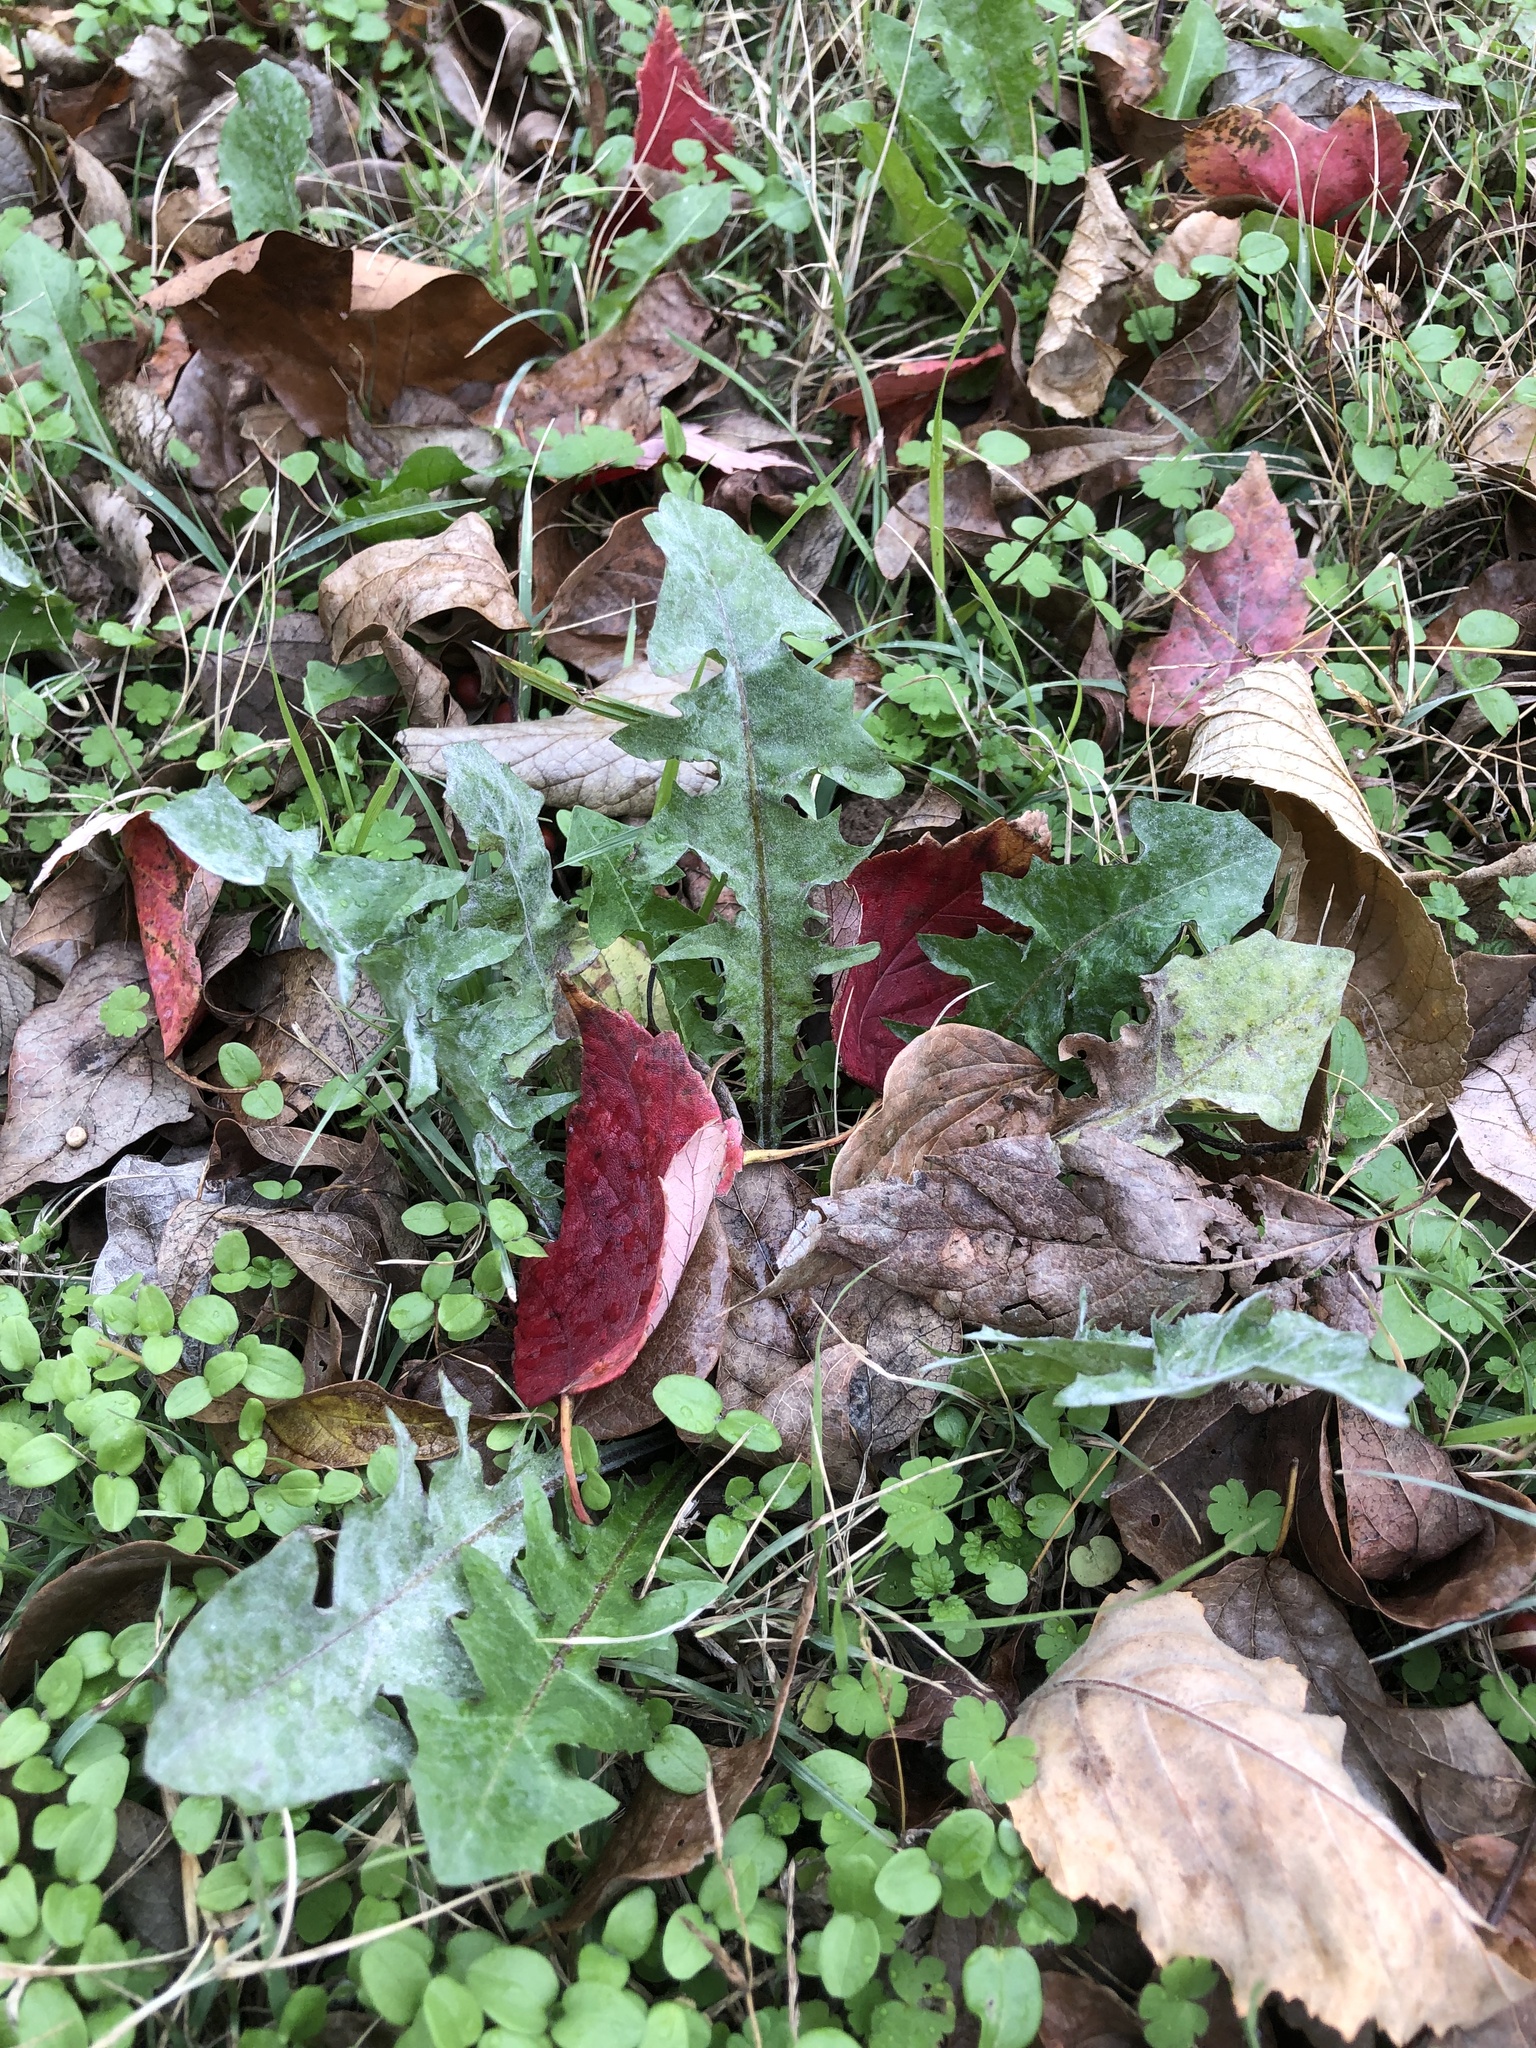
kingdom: Plantae
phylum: Tracheophyta
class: Magnoliopsida
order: Asterales
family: Asteraceae
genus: Taraxacum
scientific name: Taraxacum
